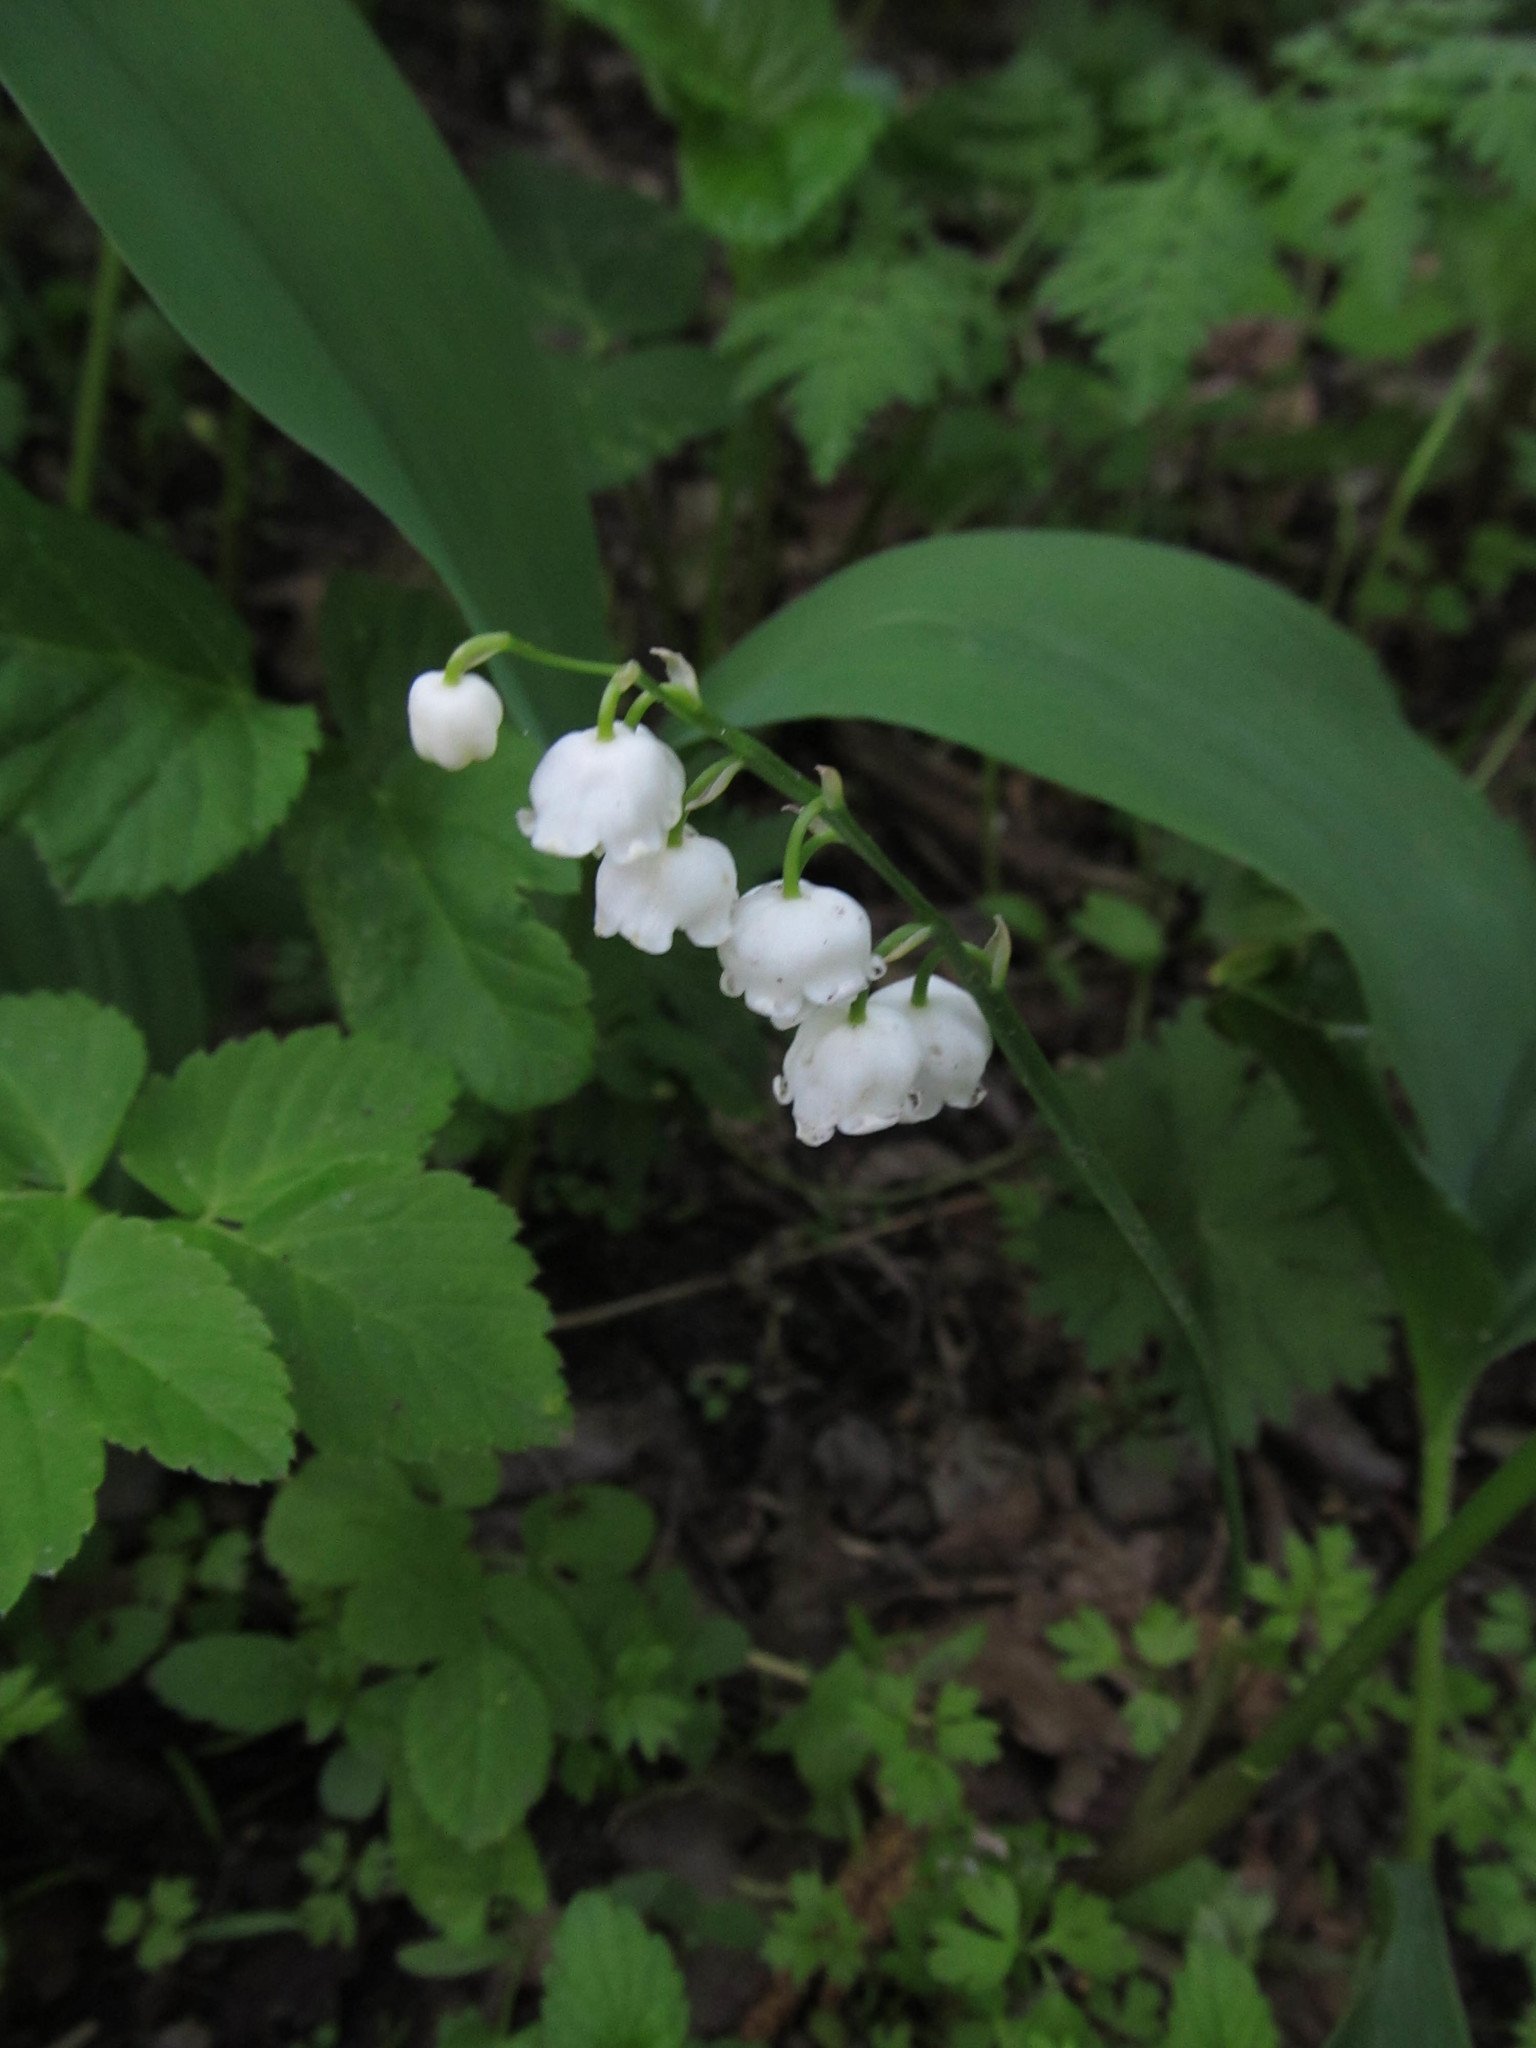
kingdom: Plantae
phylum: Tracheophyta
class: Liliopsida
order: Asparagales
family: Asparagaceae
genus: Convallaria
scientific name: Convallaria majalis
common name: Lily-of-the-valley
